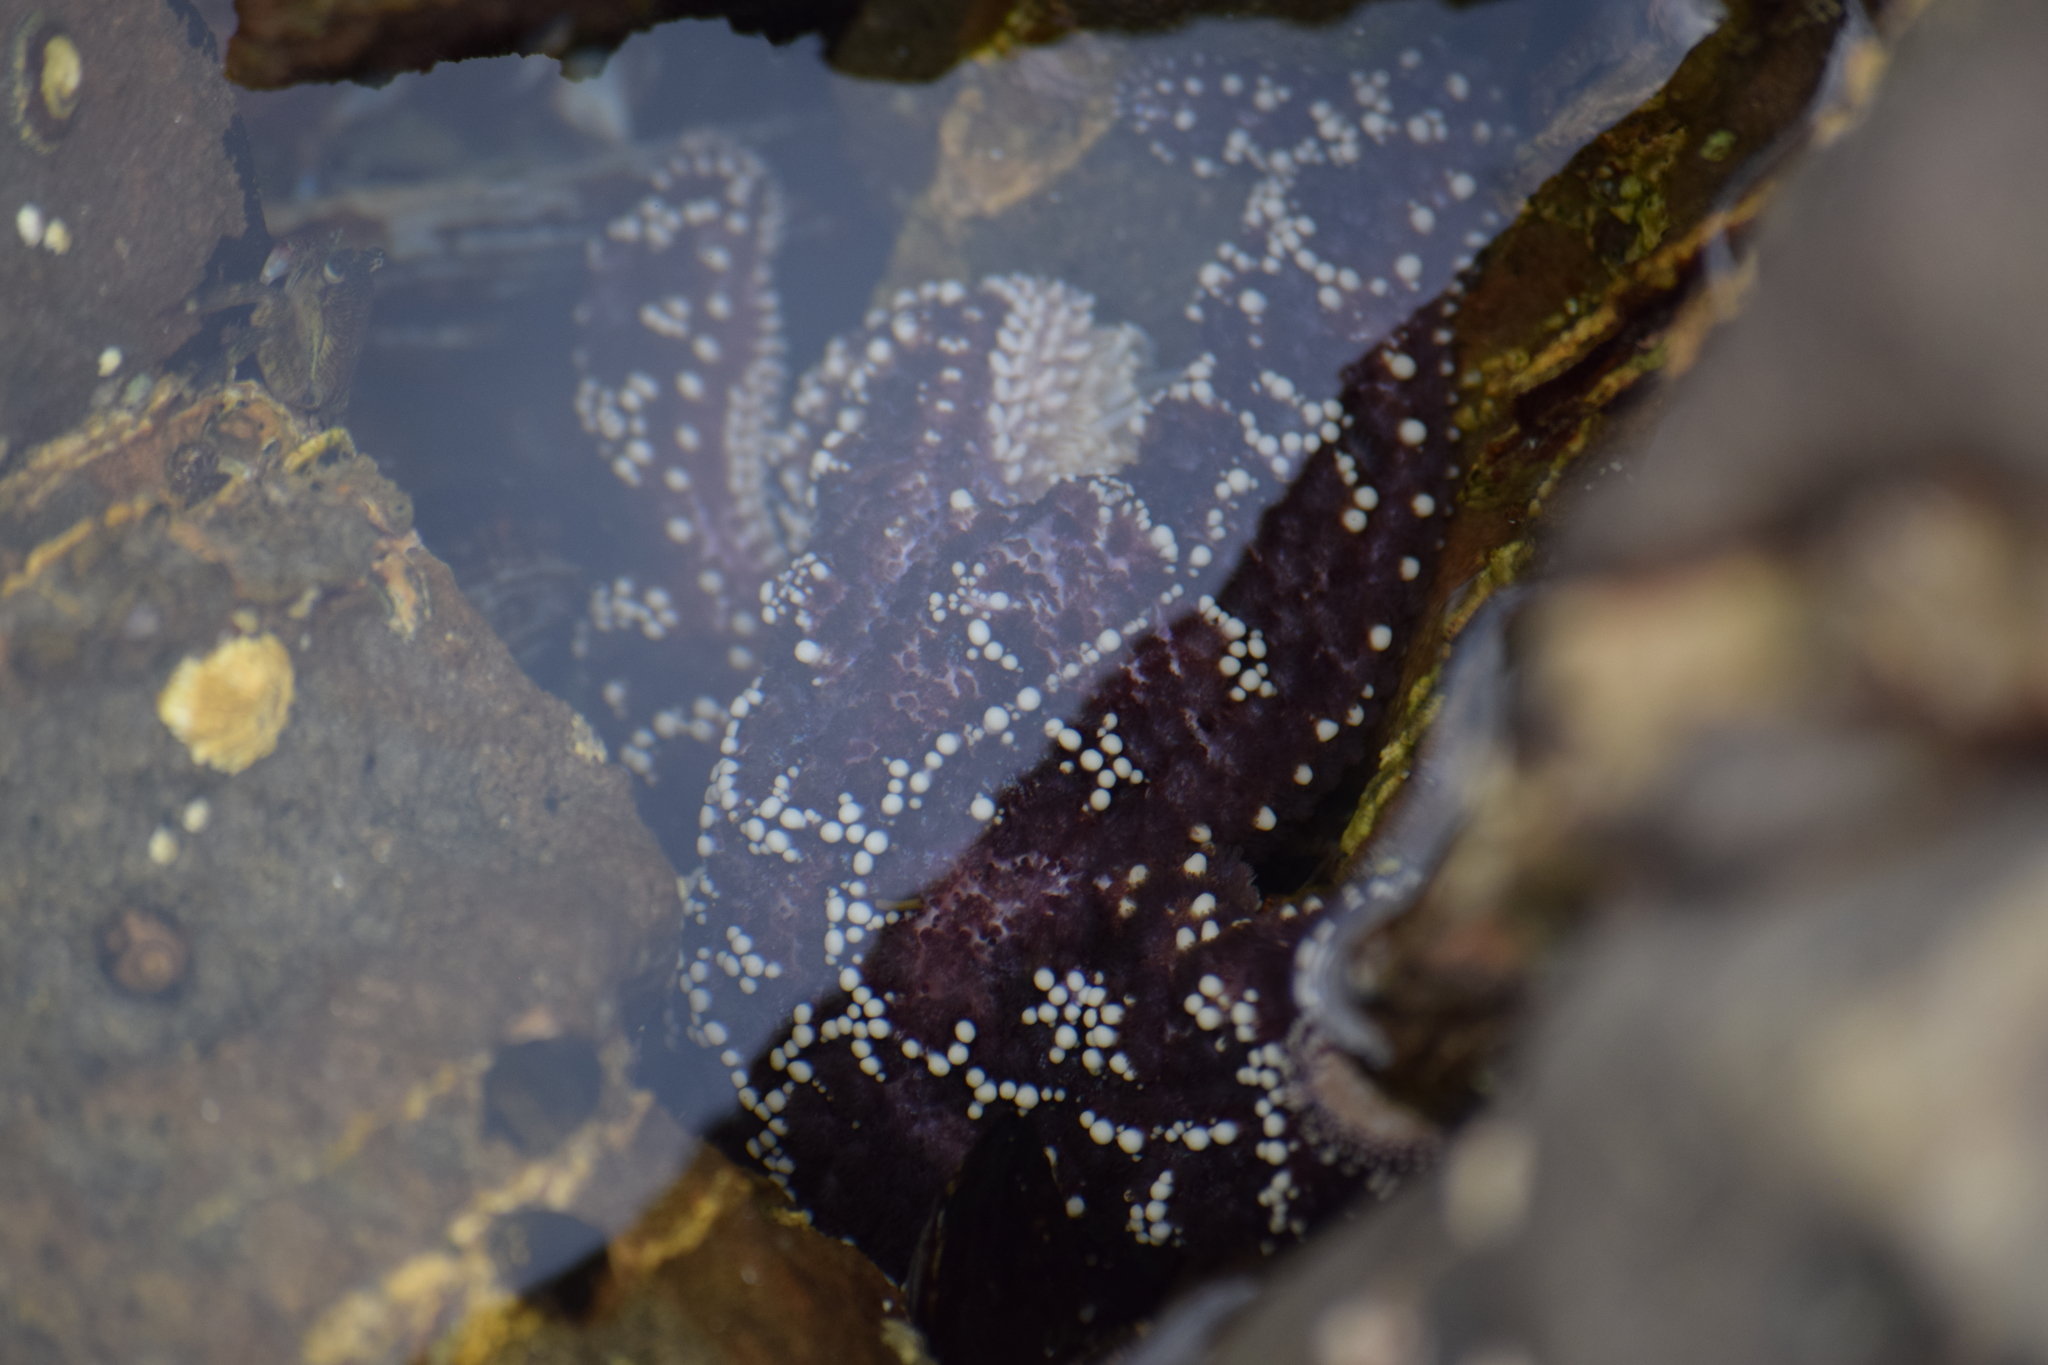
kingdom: Animalia
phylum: Echinodermata
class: Asteroidea
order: Forcipulatida
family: Asteriidae
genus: Pisaster
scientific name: Pisaster ochraceus
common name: Ochre stars
